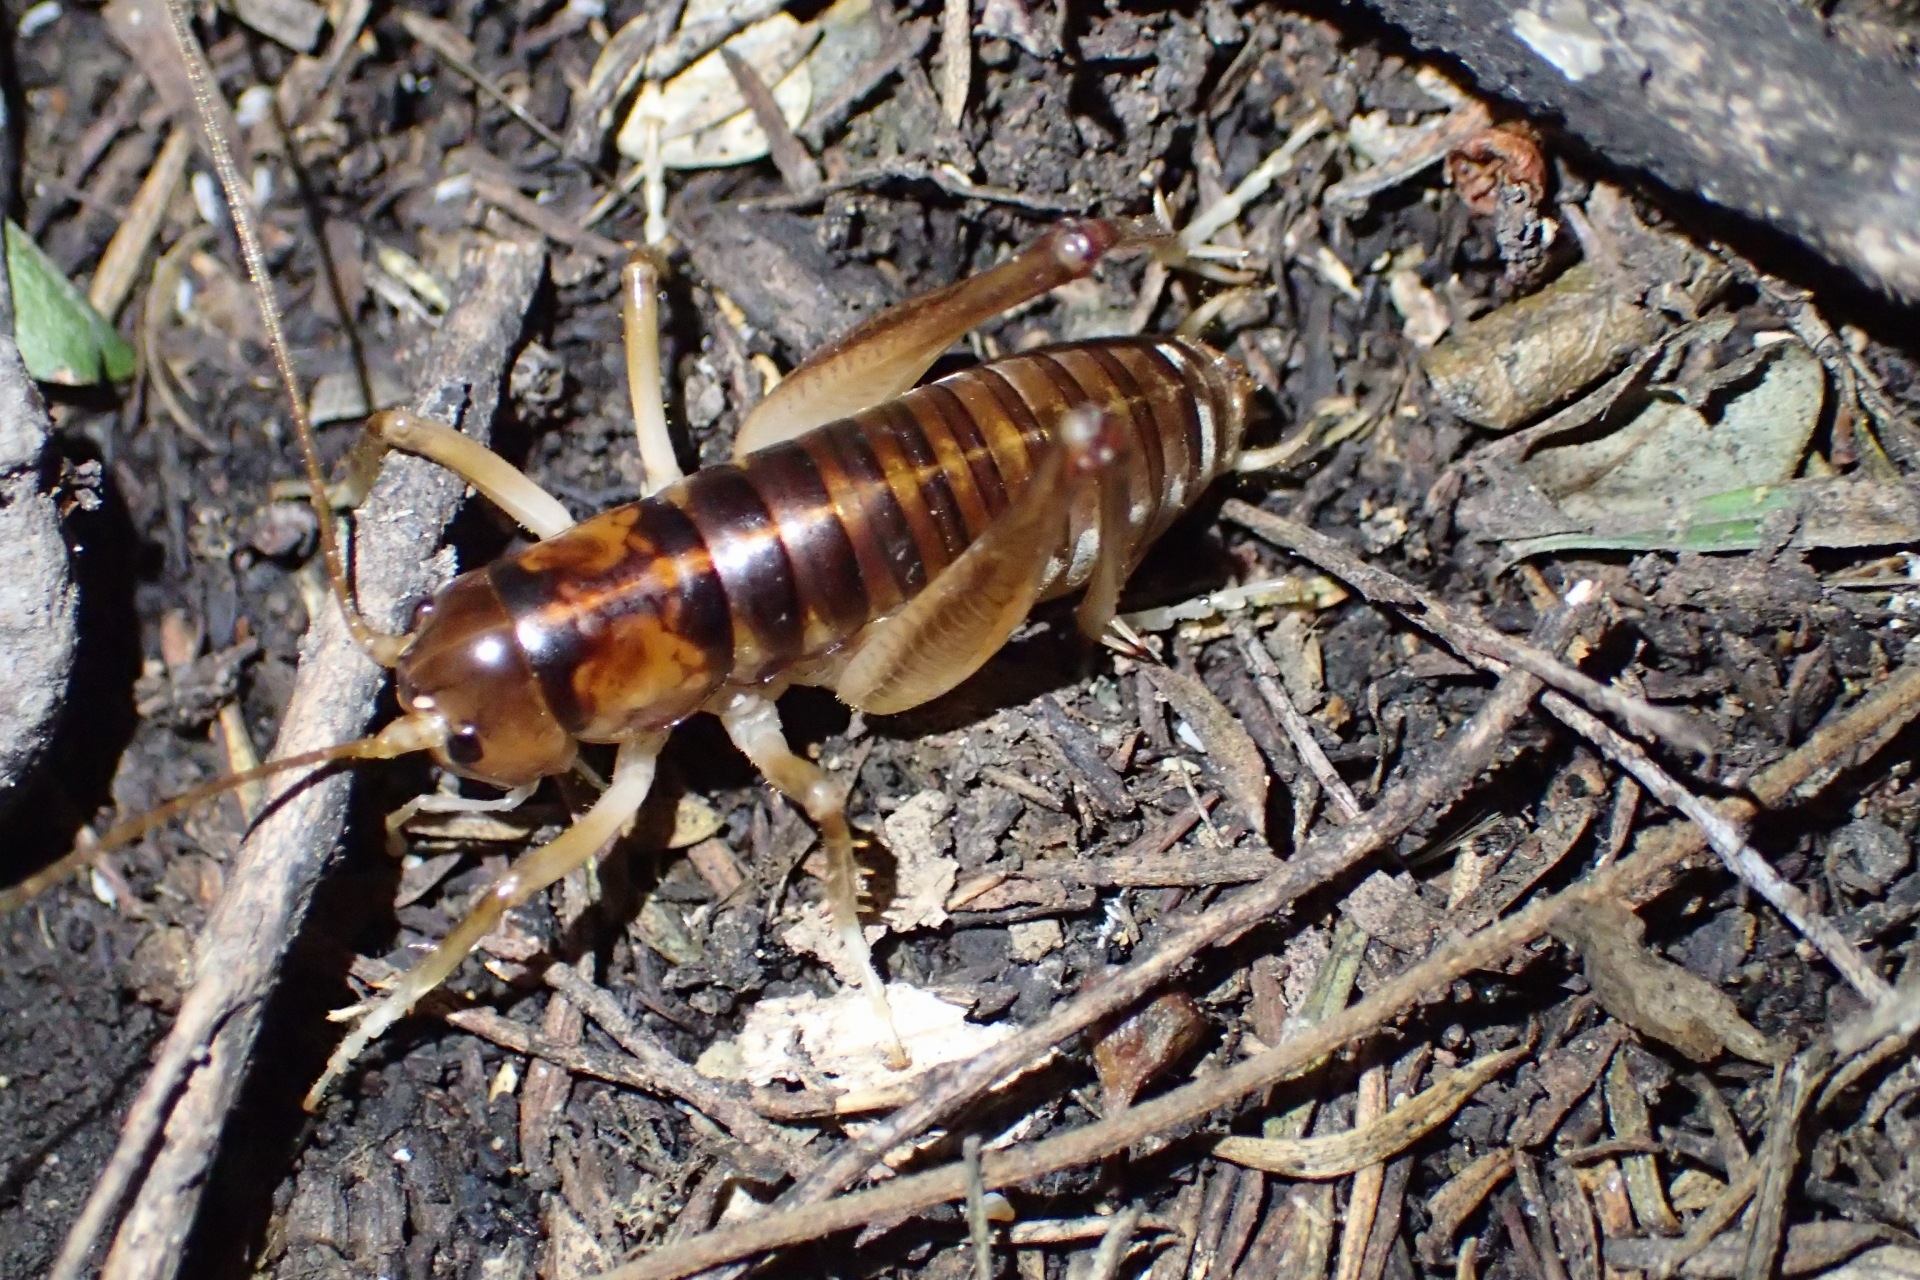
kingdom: Animalia
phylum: Arthropoda
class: Insecta
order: Orthoptera
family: Anostostomatidae
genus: Hemiandrus
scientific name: Hemiandrus pallitarsis
